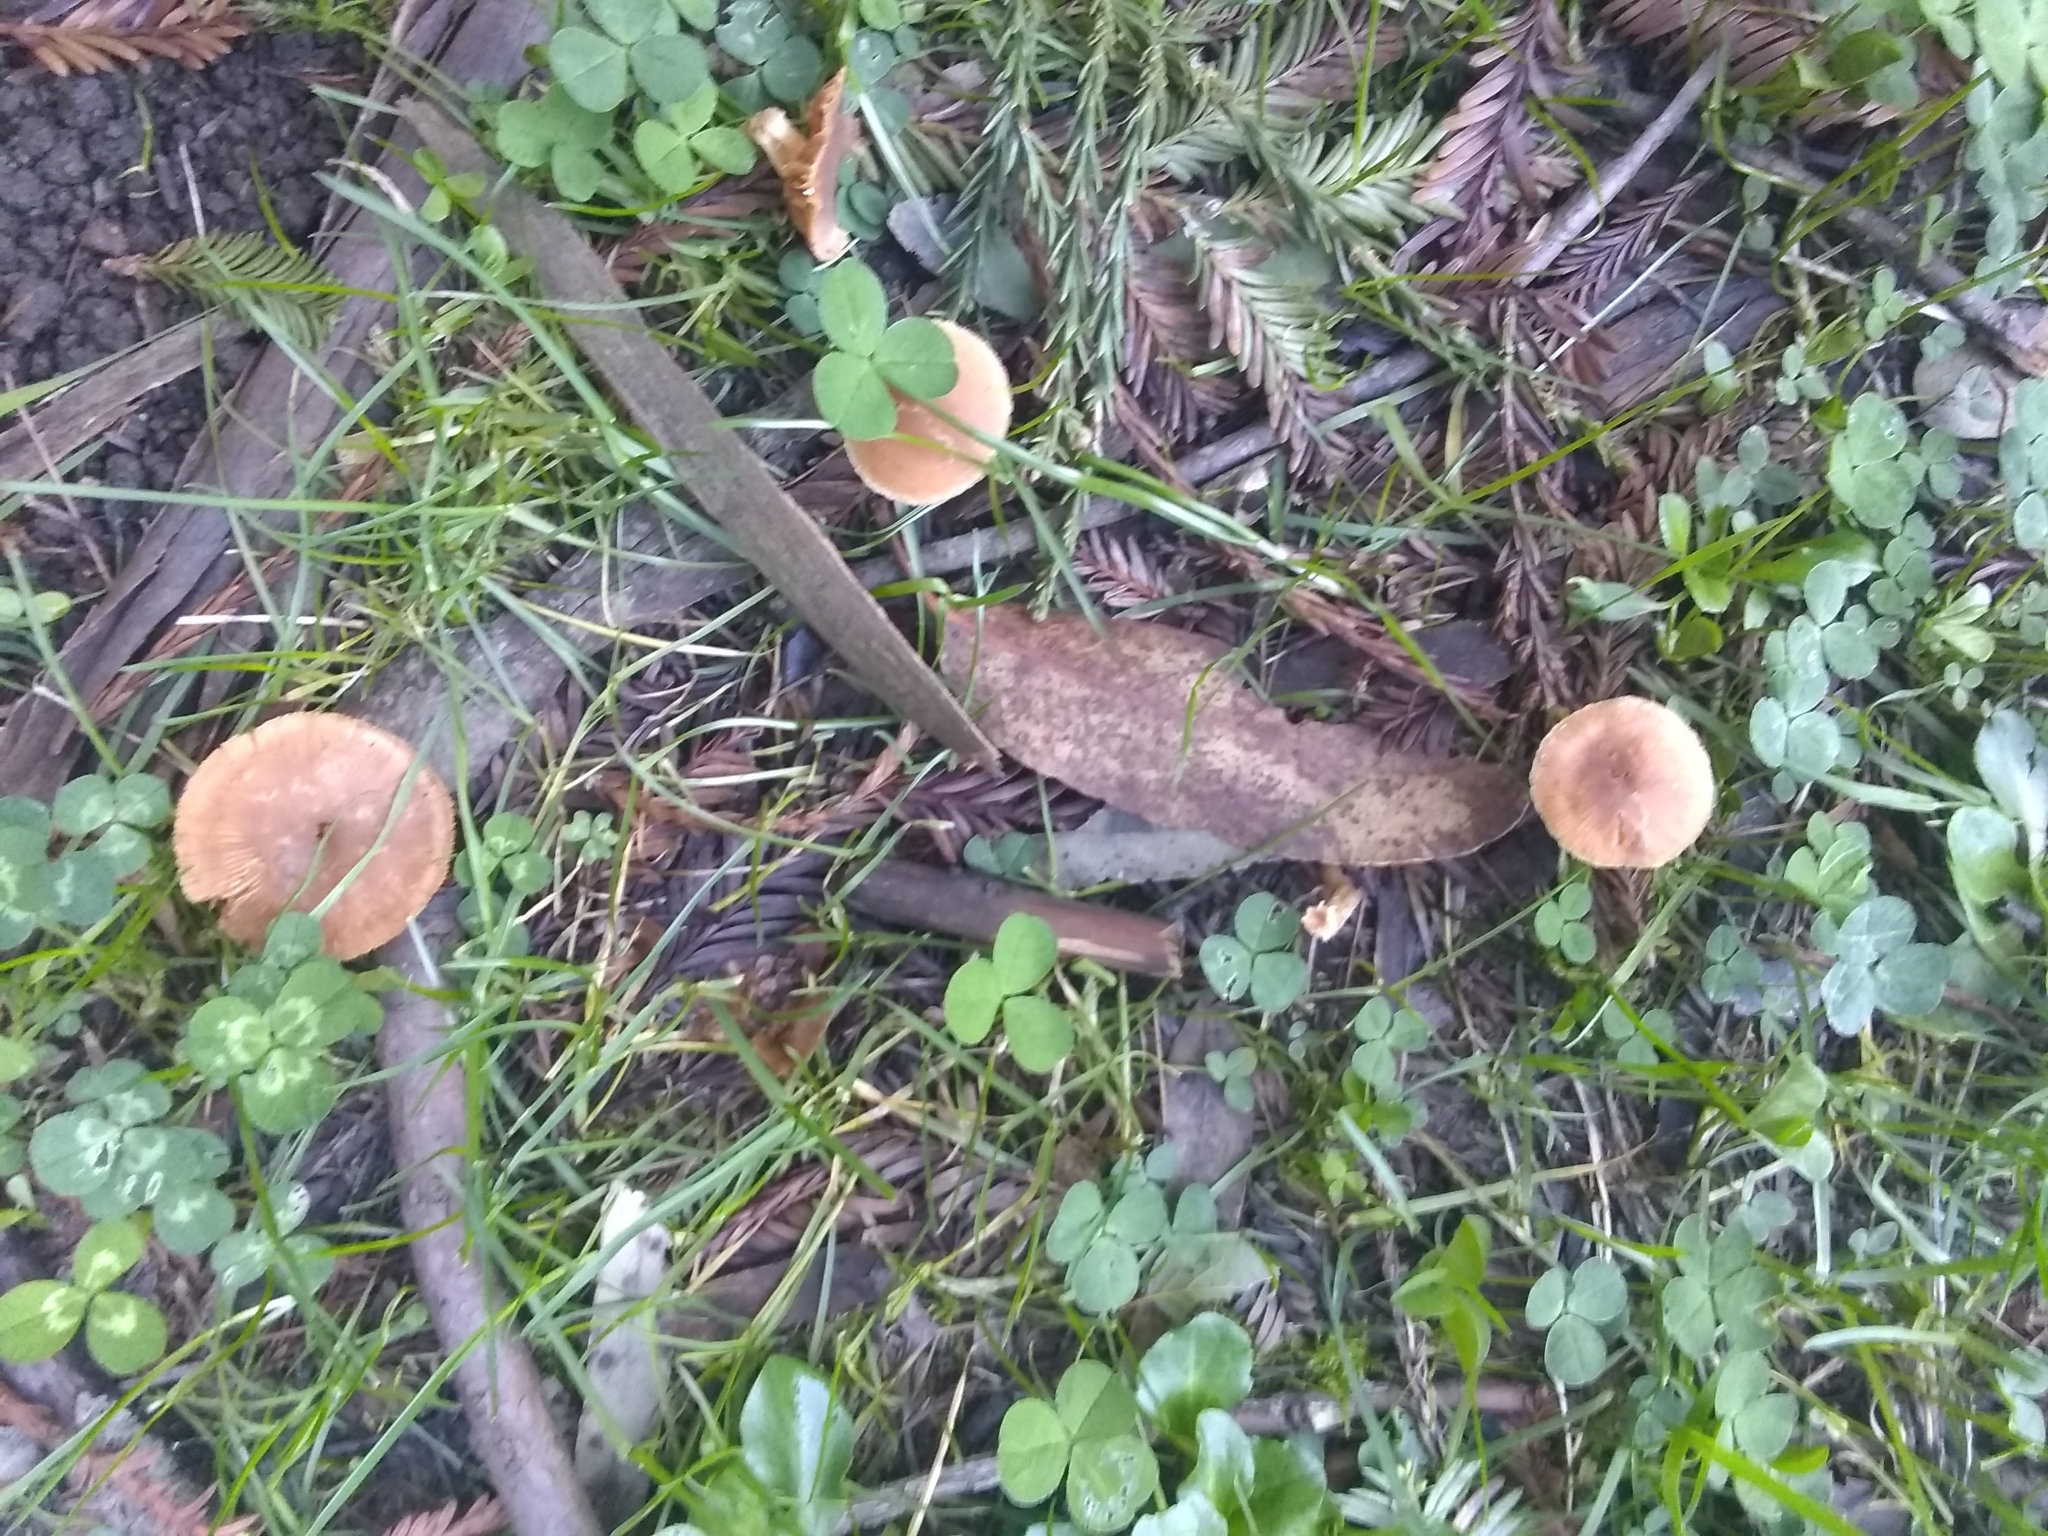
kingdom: Fungi
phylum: Basidiomycota
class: Agaricomycetes
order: Agaricales
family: Tubariaceae
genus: Tubaria
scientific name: Tubaria furfuracea
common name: Scurfy twiglet
